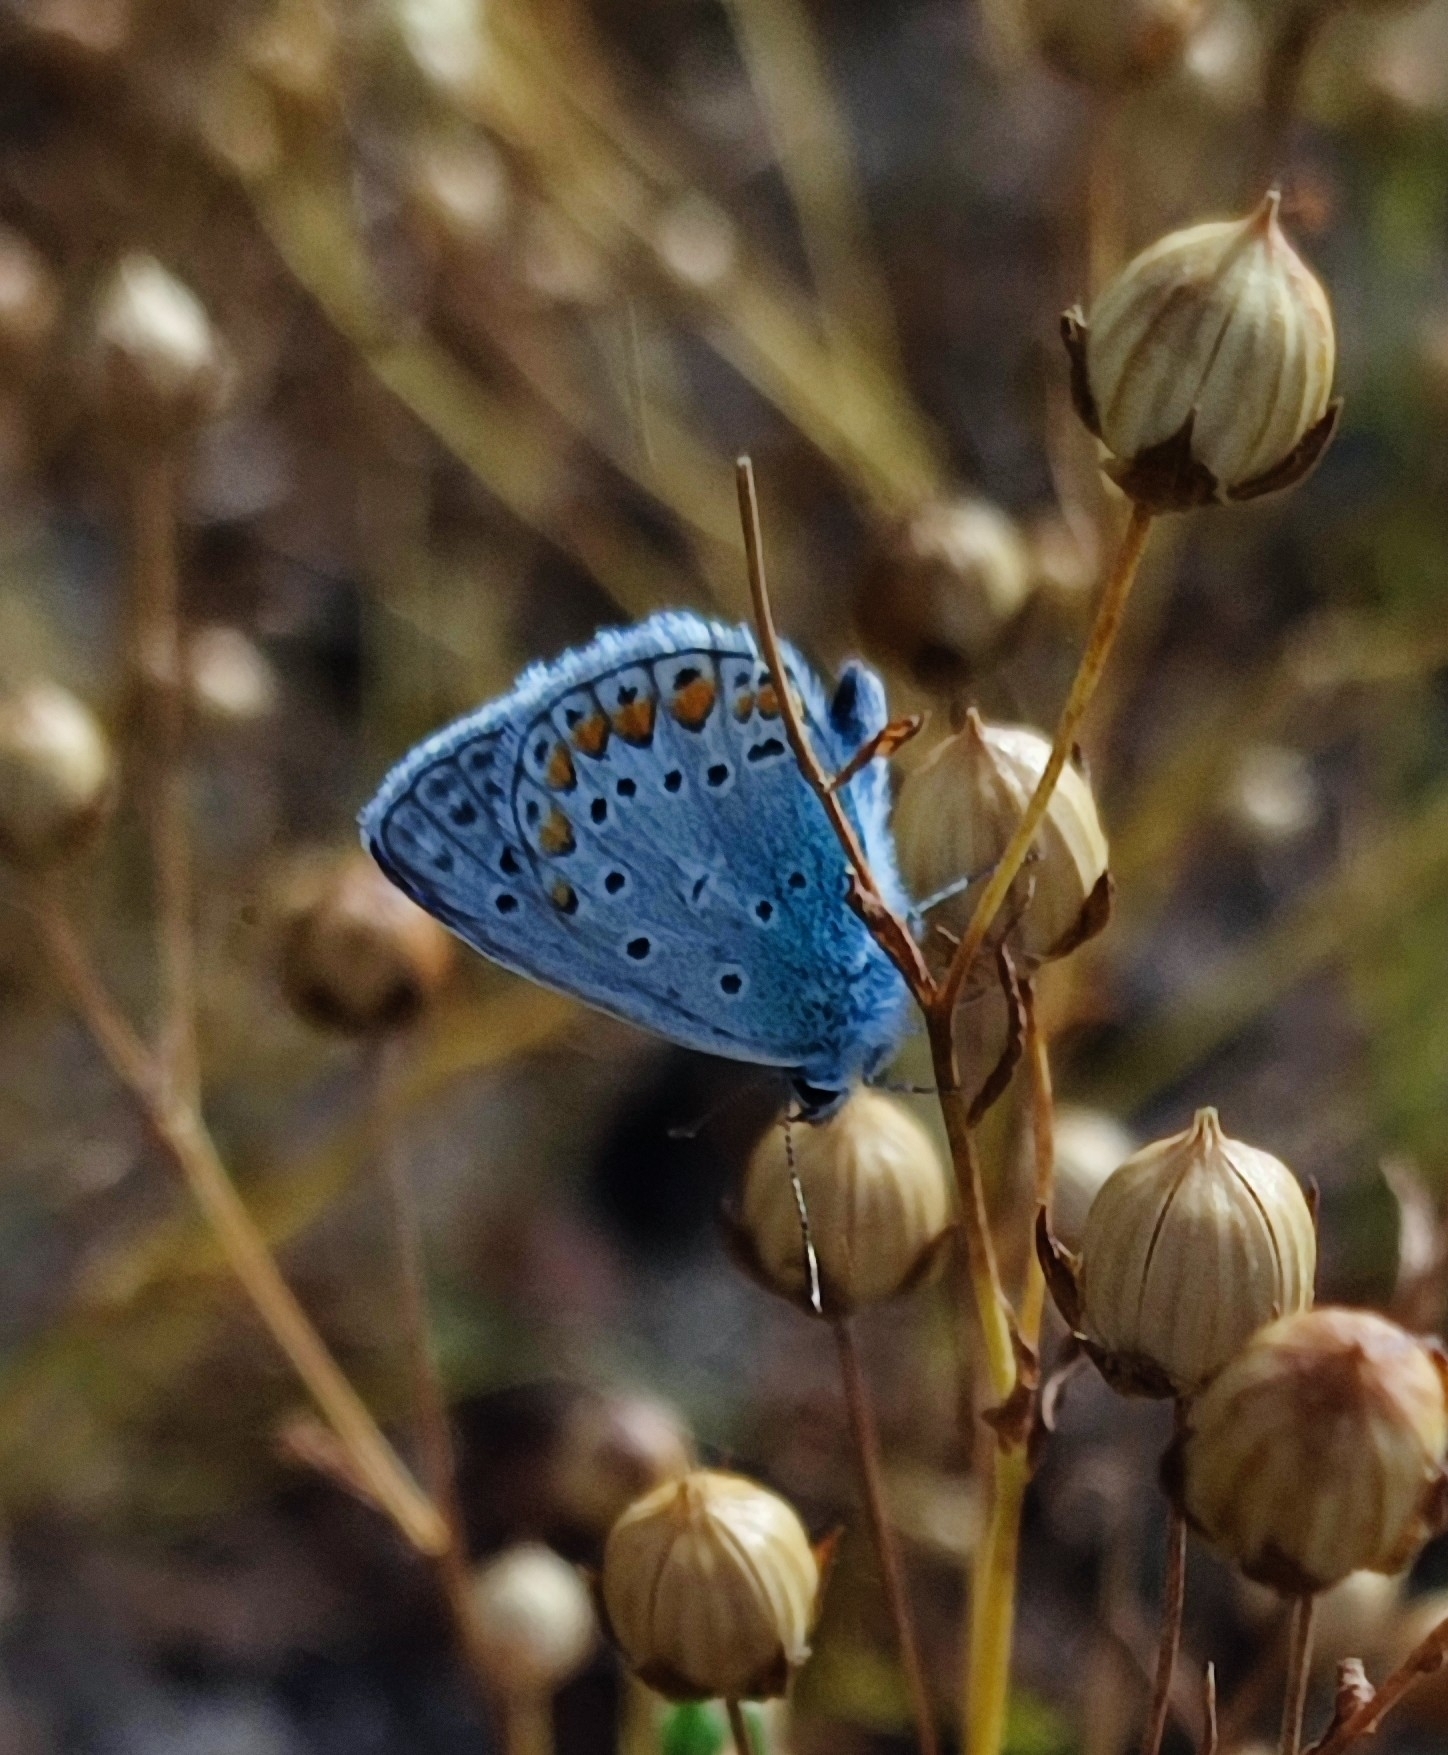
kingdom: Animalia
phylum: Arthropoda
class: Insecta
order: Lepidoptera
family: Lycaenidae
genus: Polyommatus
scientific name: Polyommatus icarus
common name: Common blue
